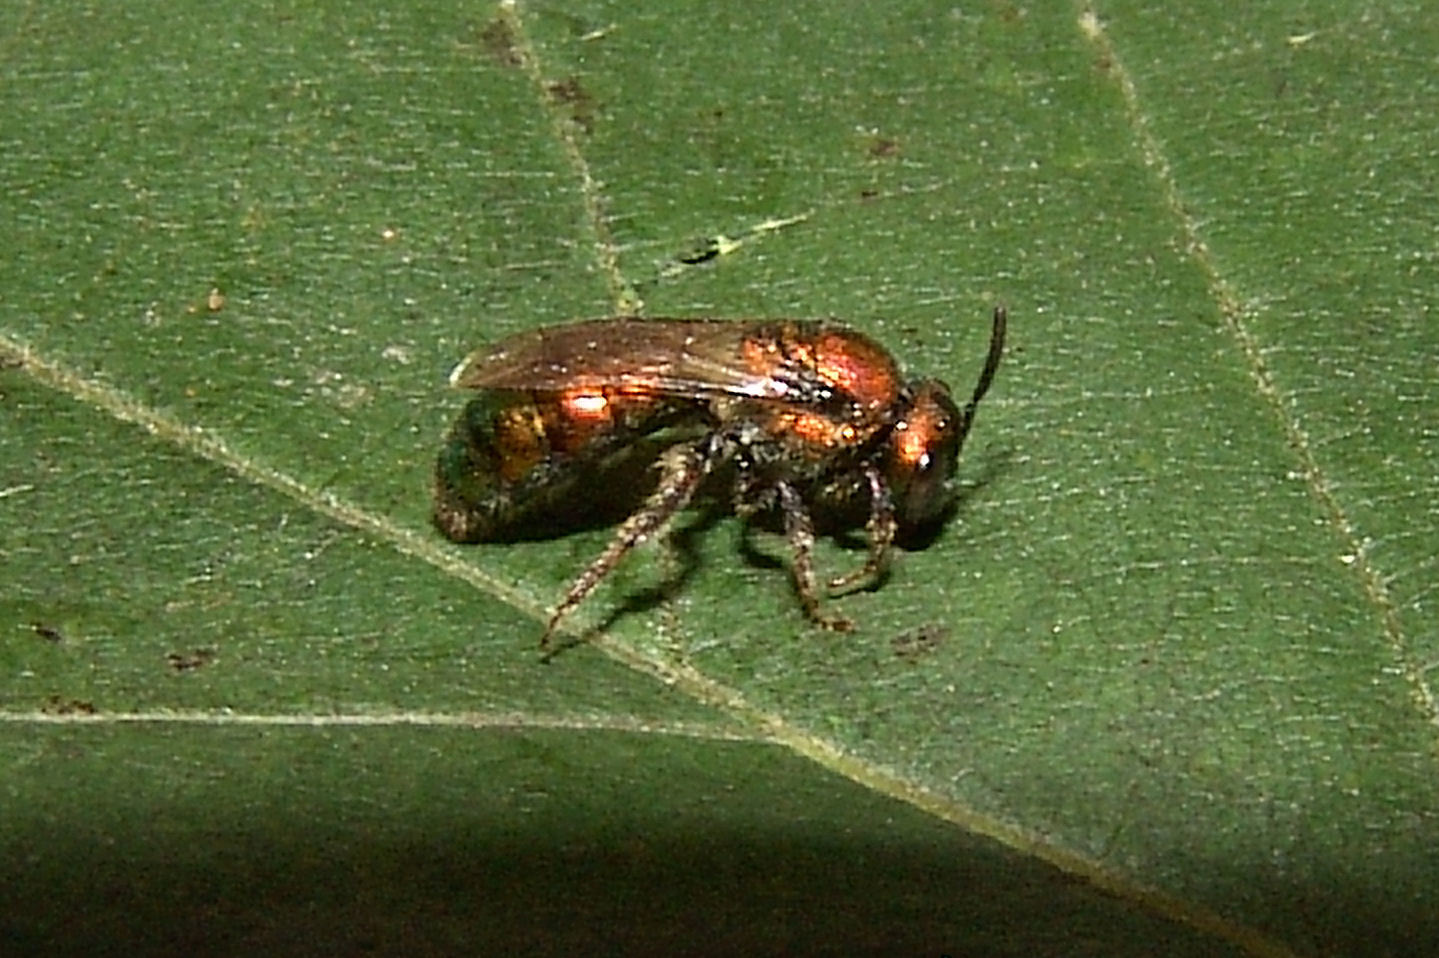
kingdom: Animalia
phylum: Arthropoda
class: Insecta
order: Hymenoptera
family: Halictidae
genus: Augochlora
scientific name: Augochlora pura
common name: Pure green sweat bee
